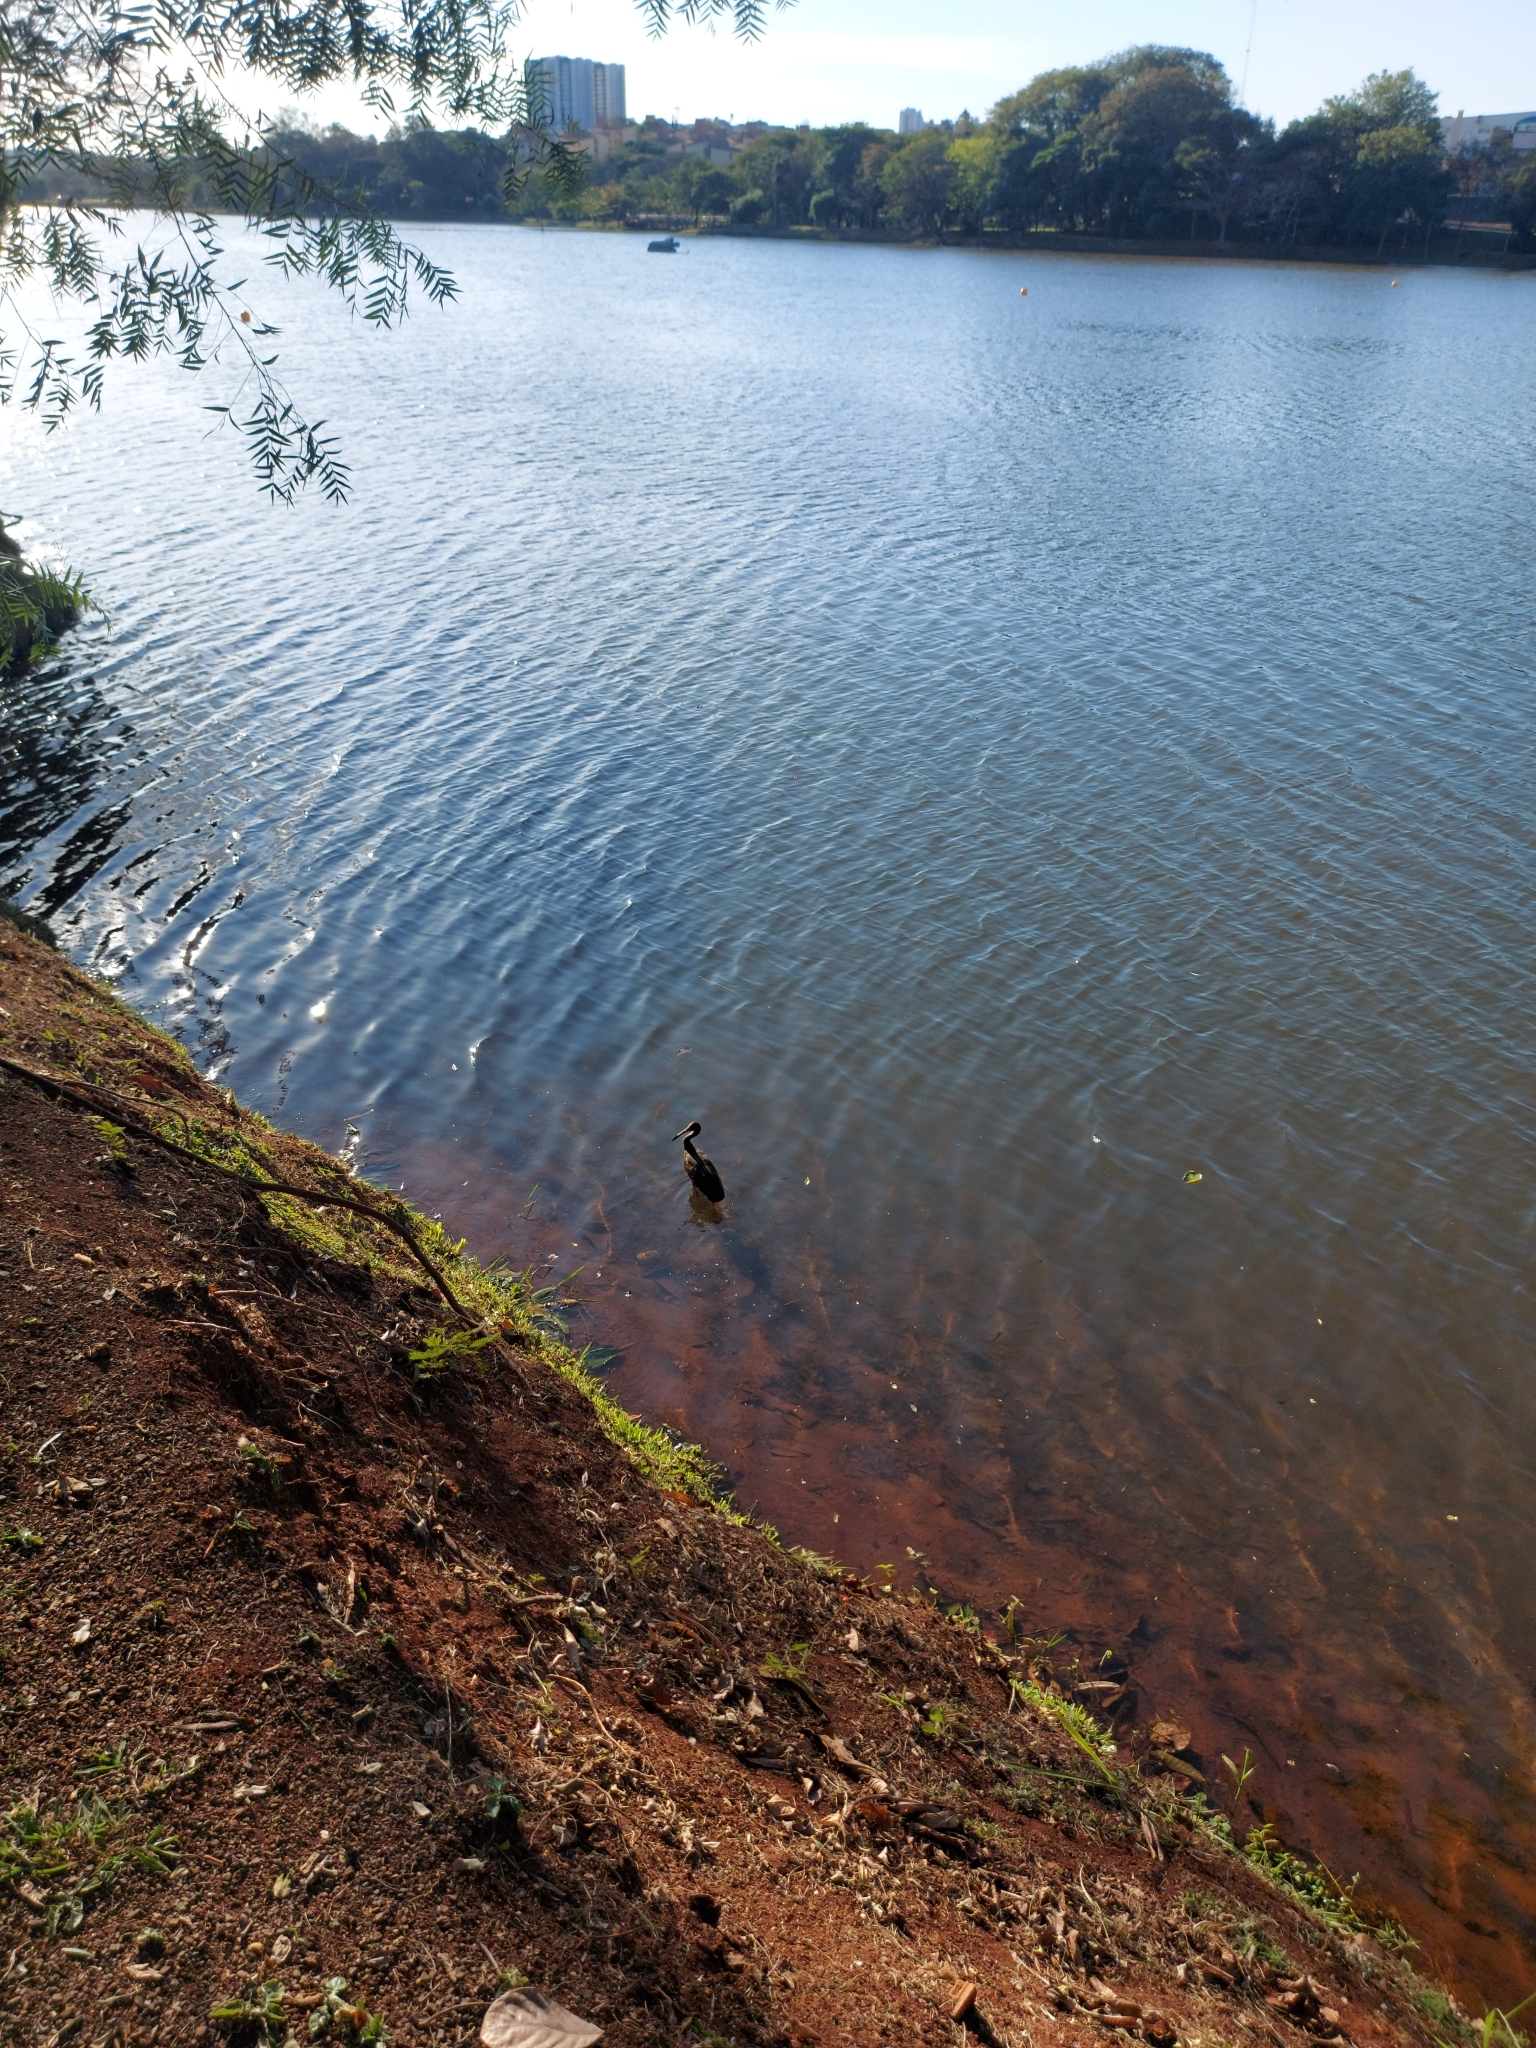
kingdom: Animalia
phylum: Chordata
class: Aves
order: Gruiformes
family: Aramidae
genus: Aramus
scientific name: Aramus guarauna
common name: Limpkin
